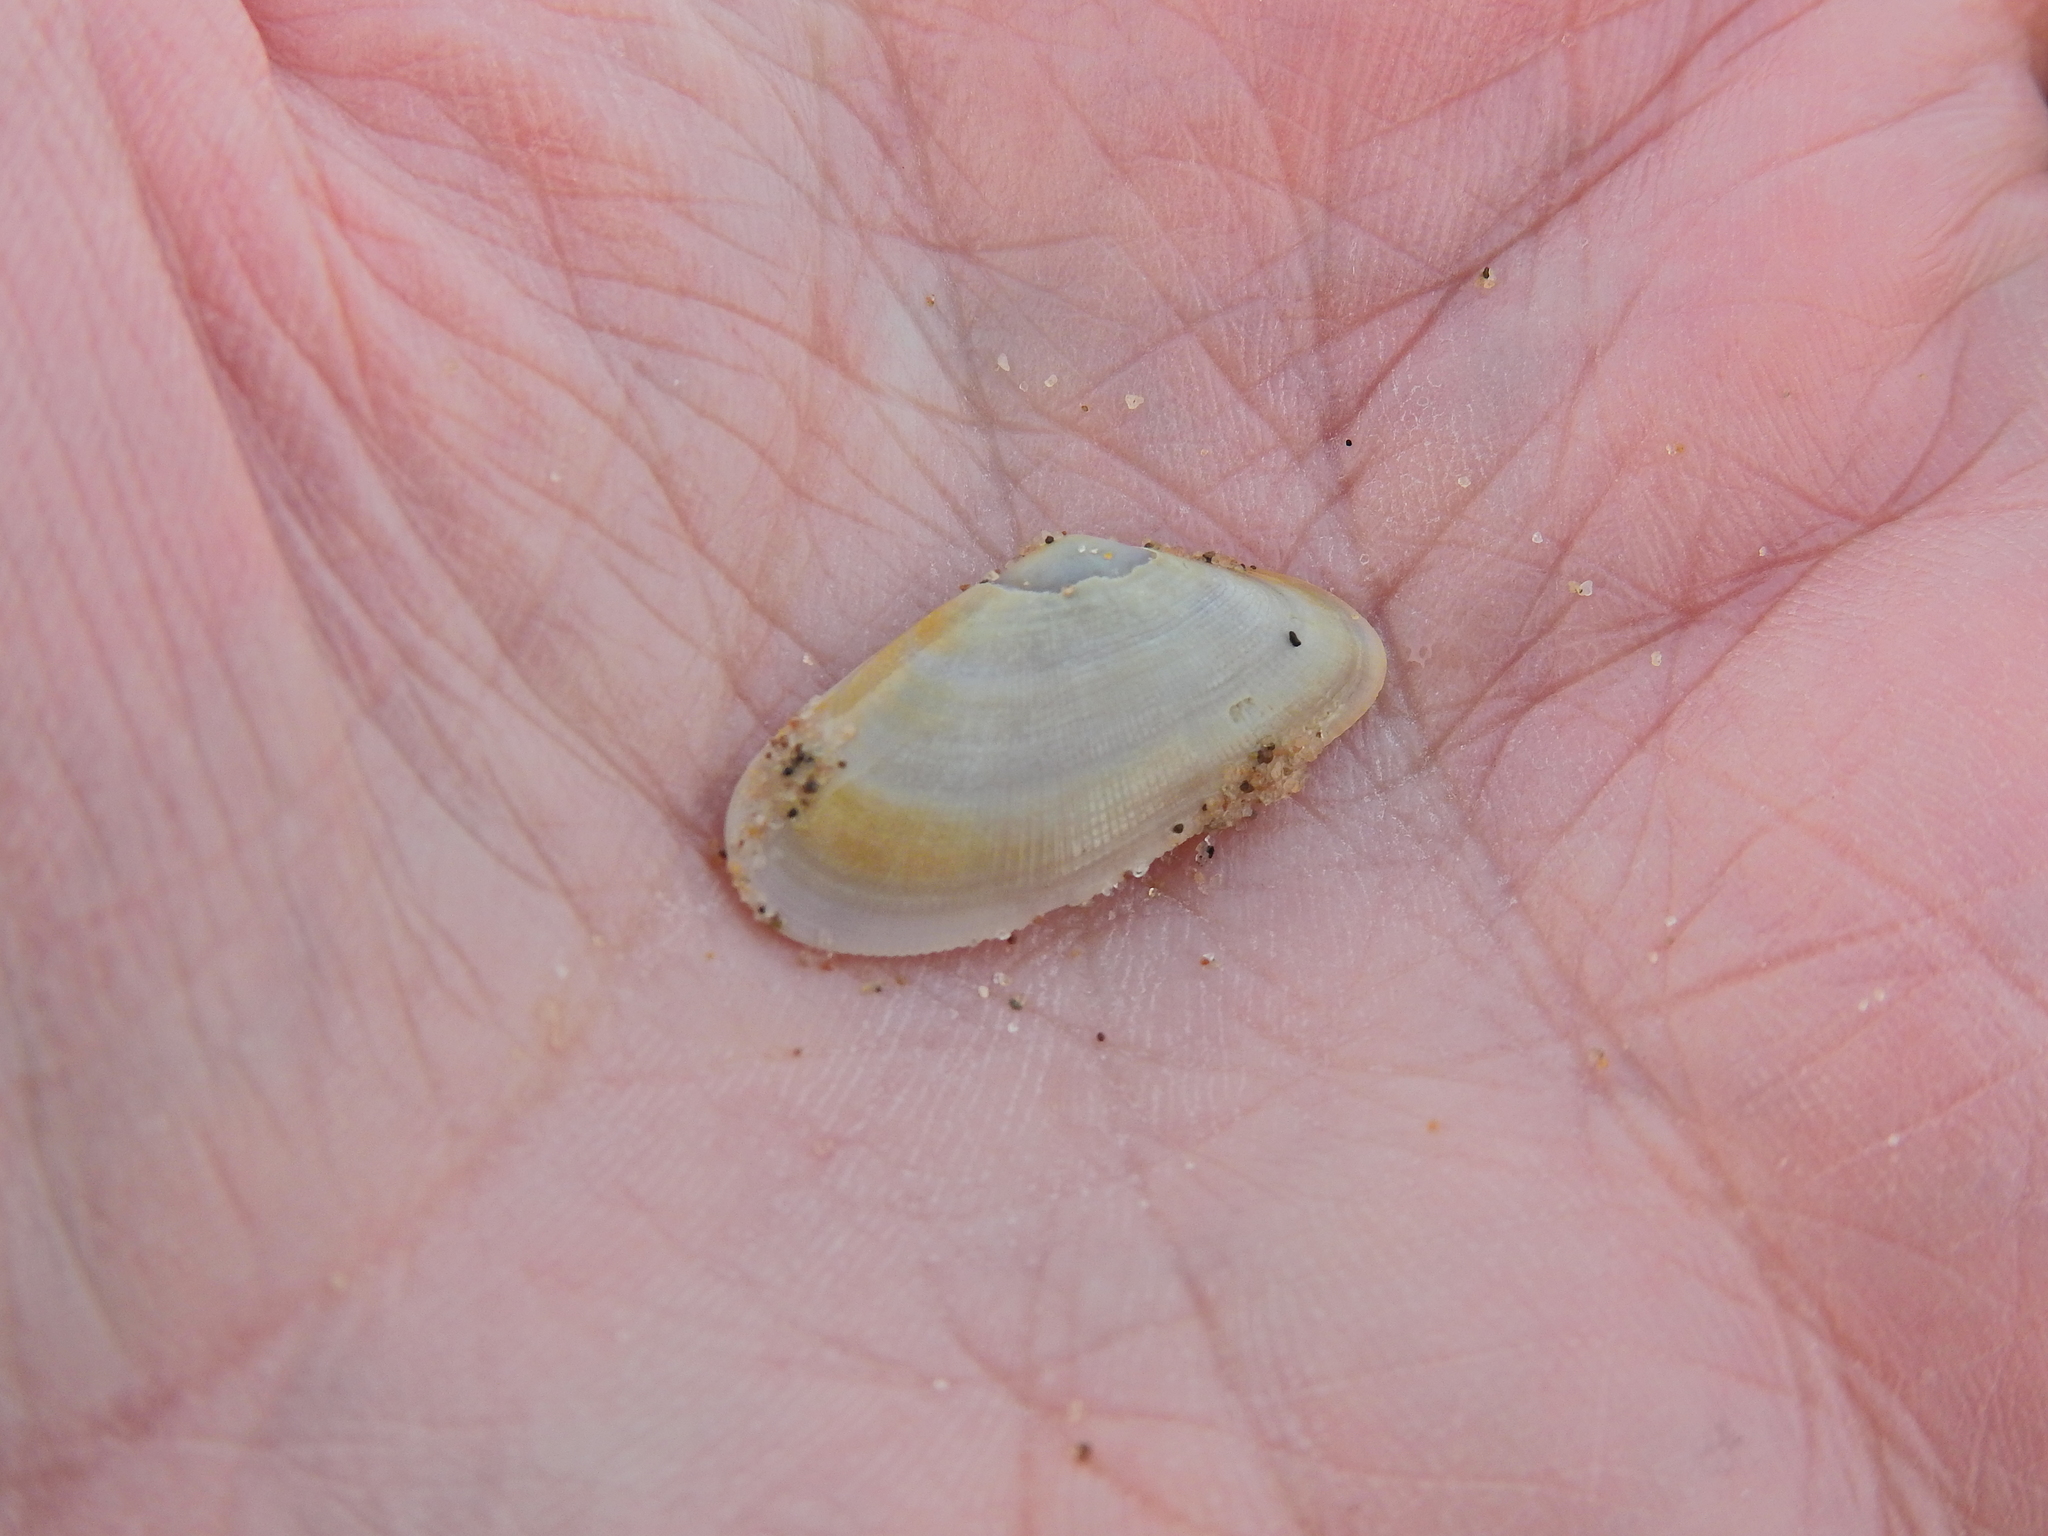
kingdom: Animalia
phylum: Mollusca
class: Bivalvia
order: Cardiida
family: Donacidae
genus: Donax
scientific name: Donax vittatus
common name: Banded wedge-shell
